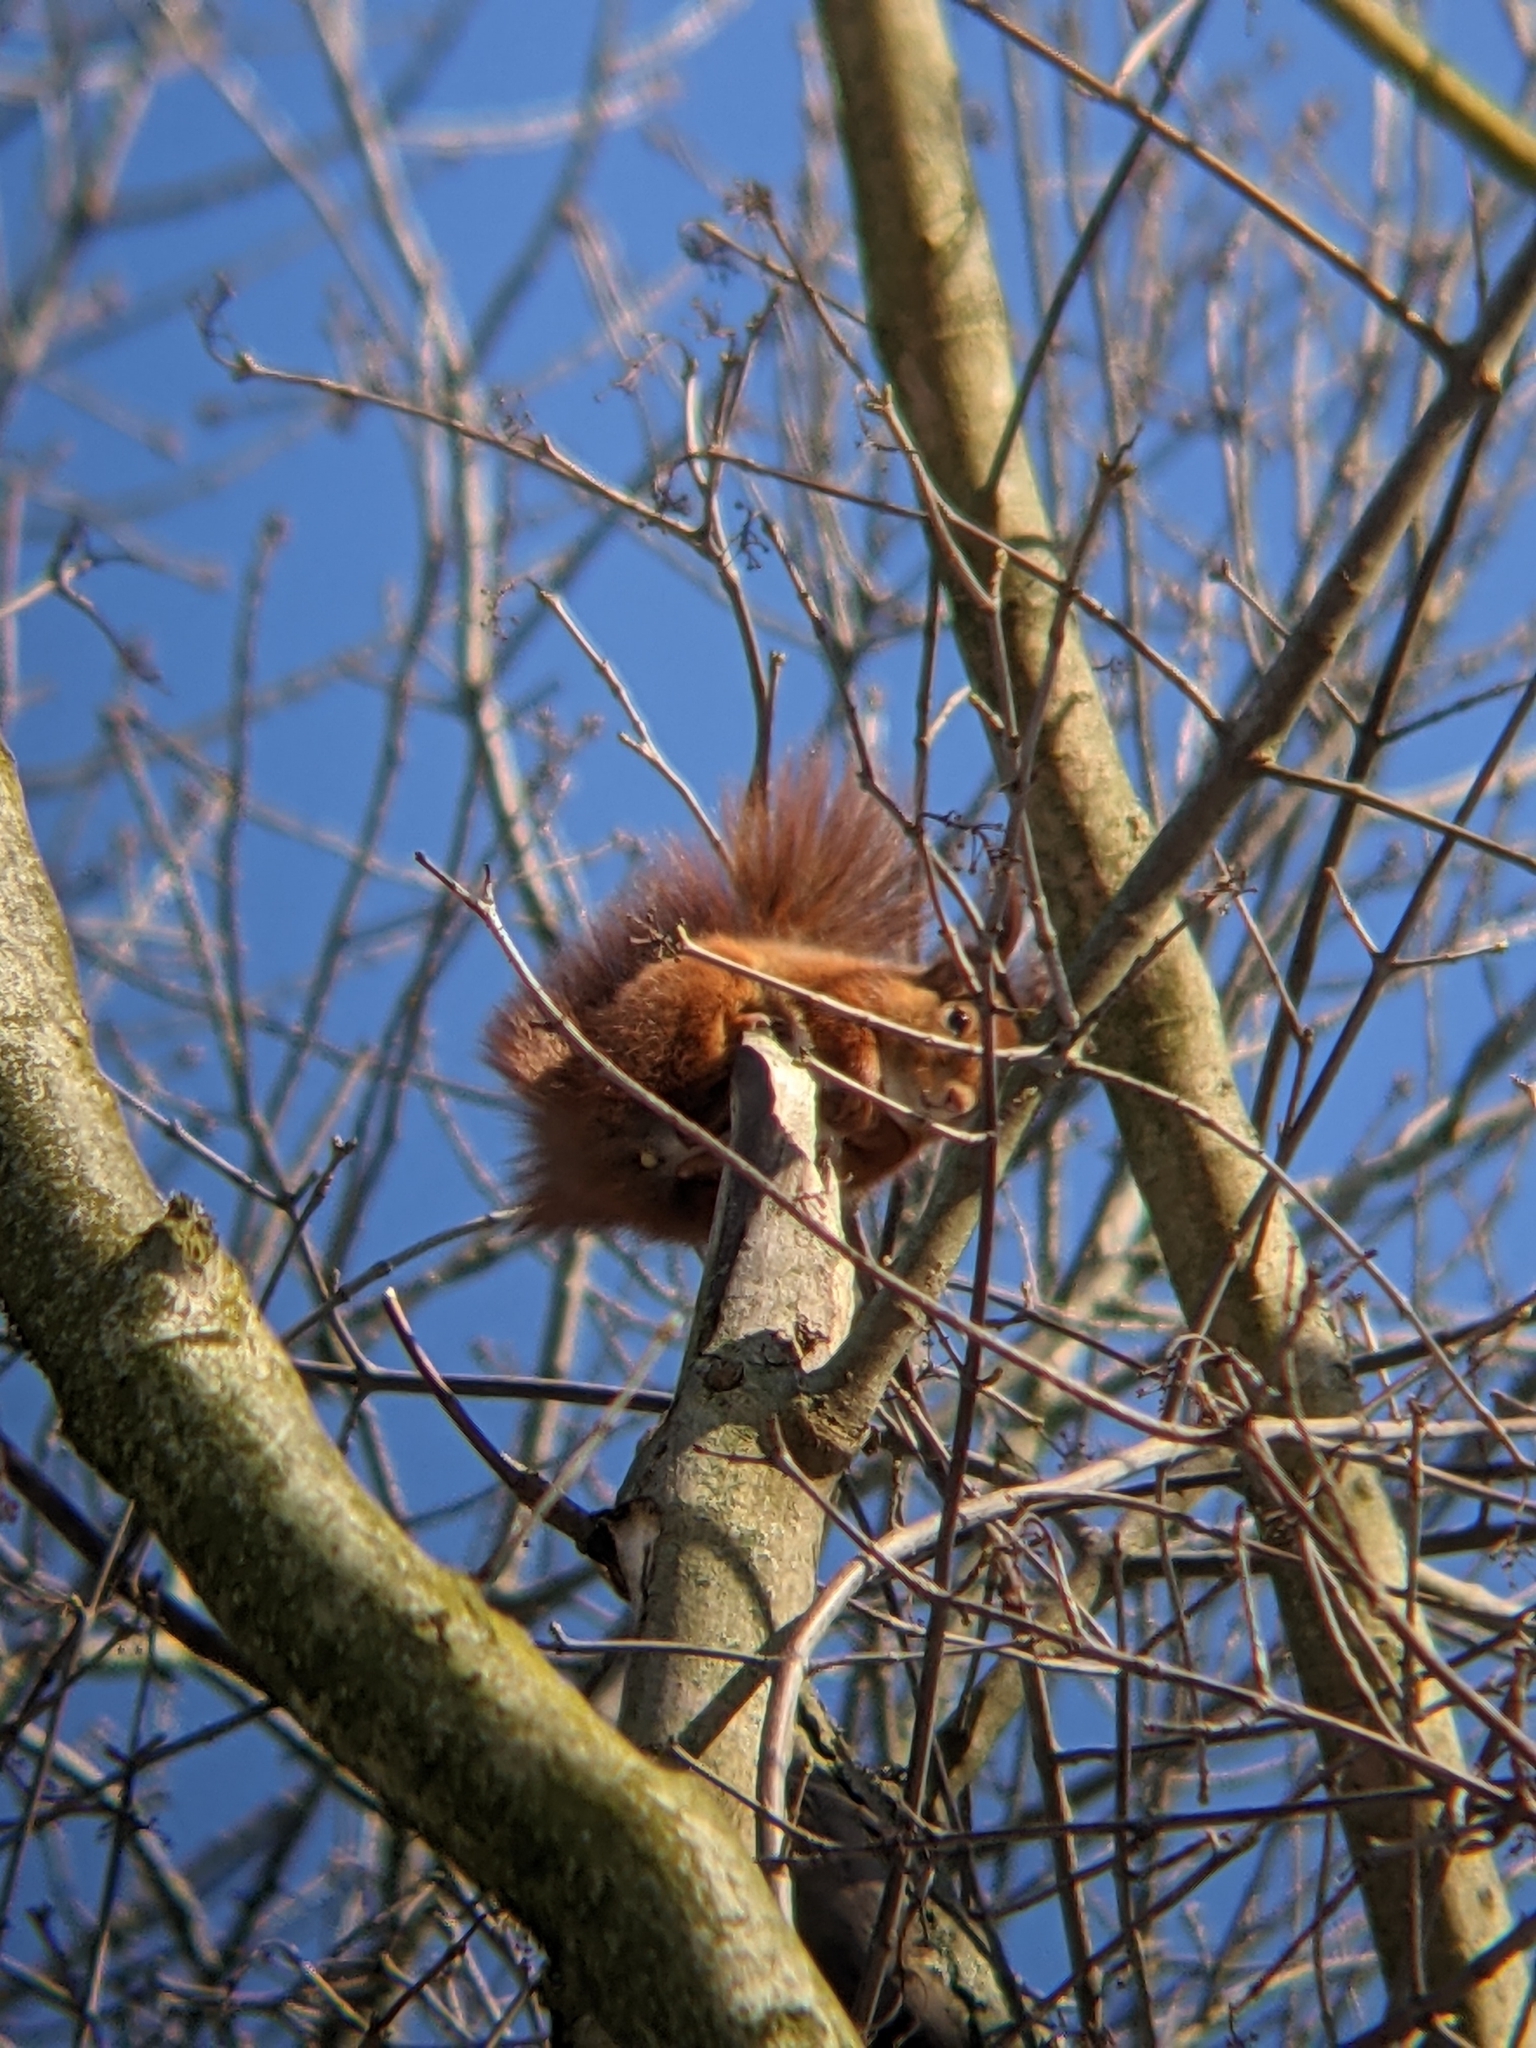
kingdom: Animalia
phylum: Chordata
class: Mammalia
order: Rodentia
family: Sciuridae
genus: Sciurus
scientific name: Sciurus vulgaris
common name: Eurasian red squirrel
